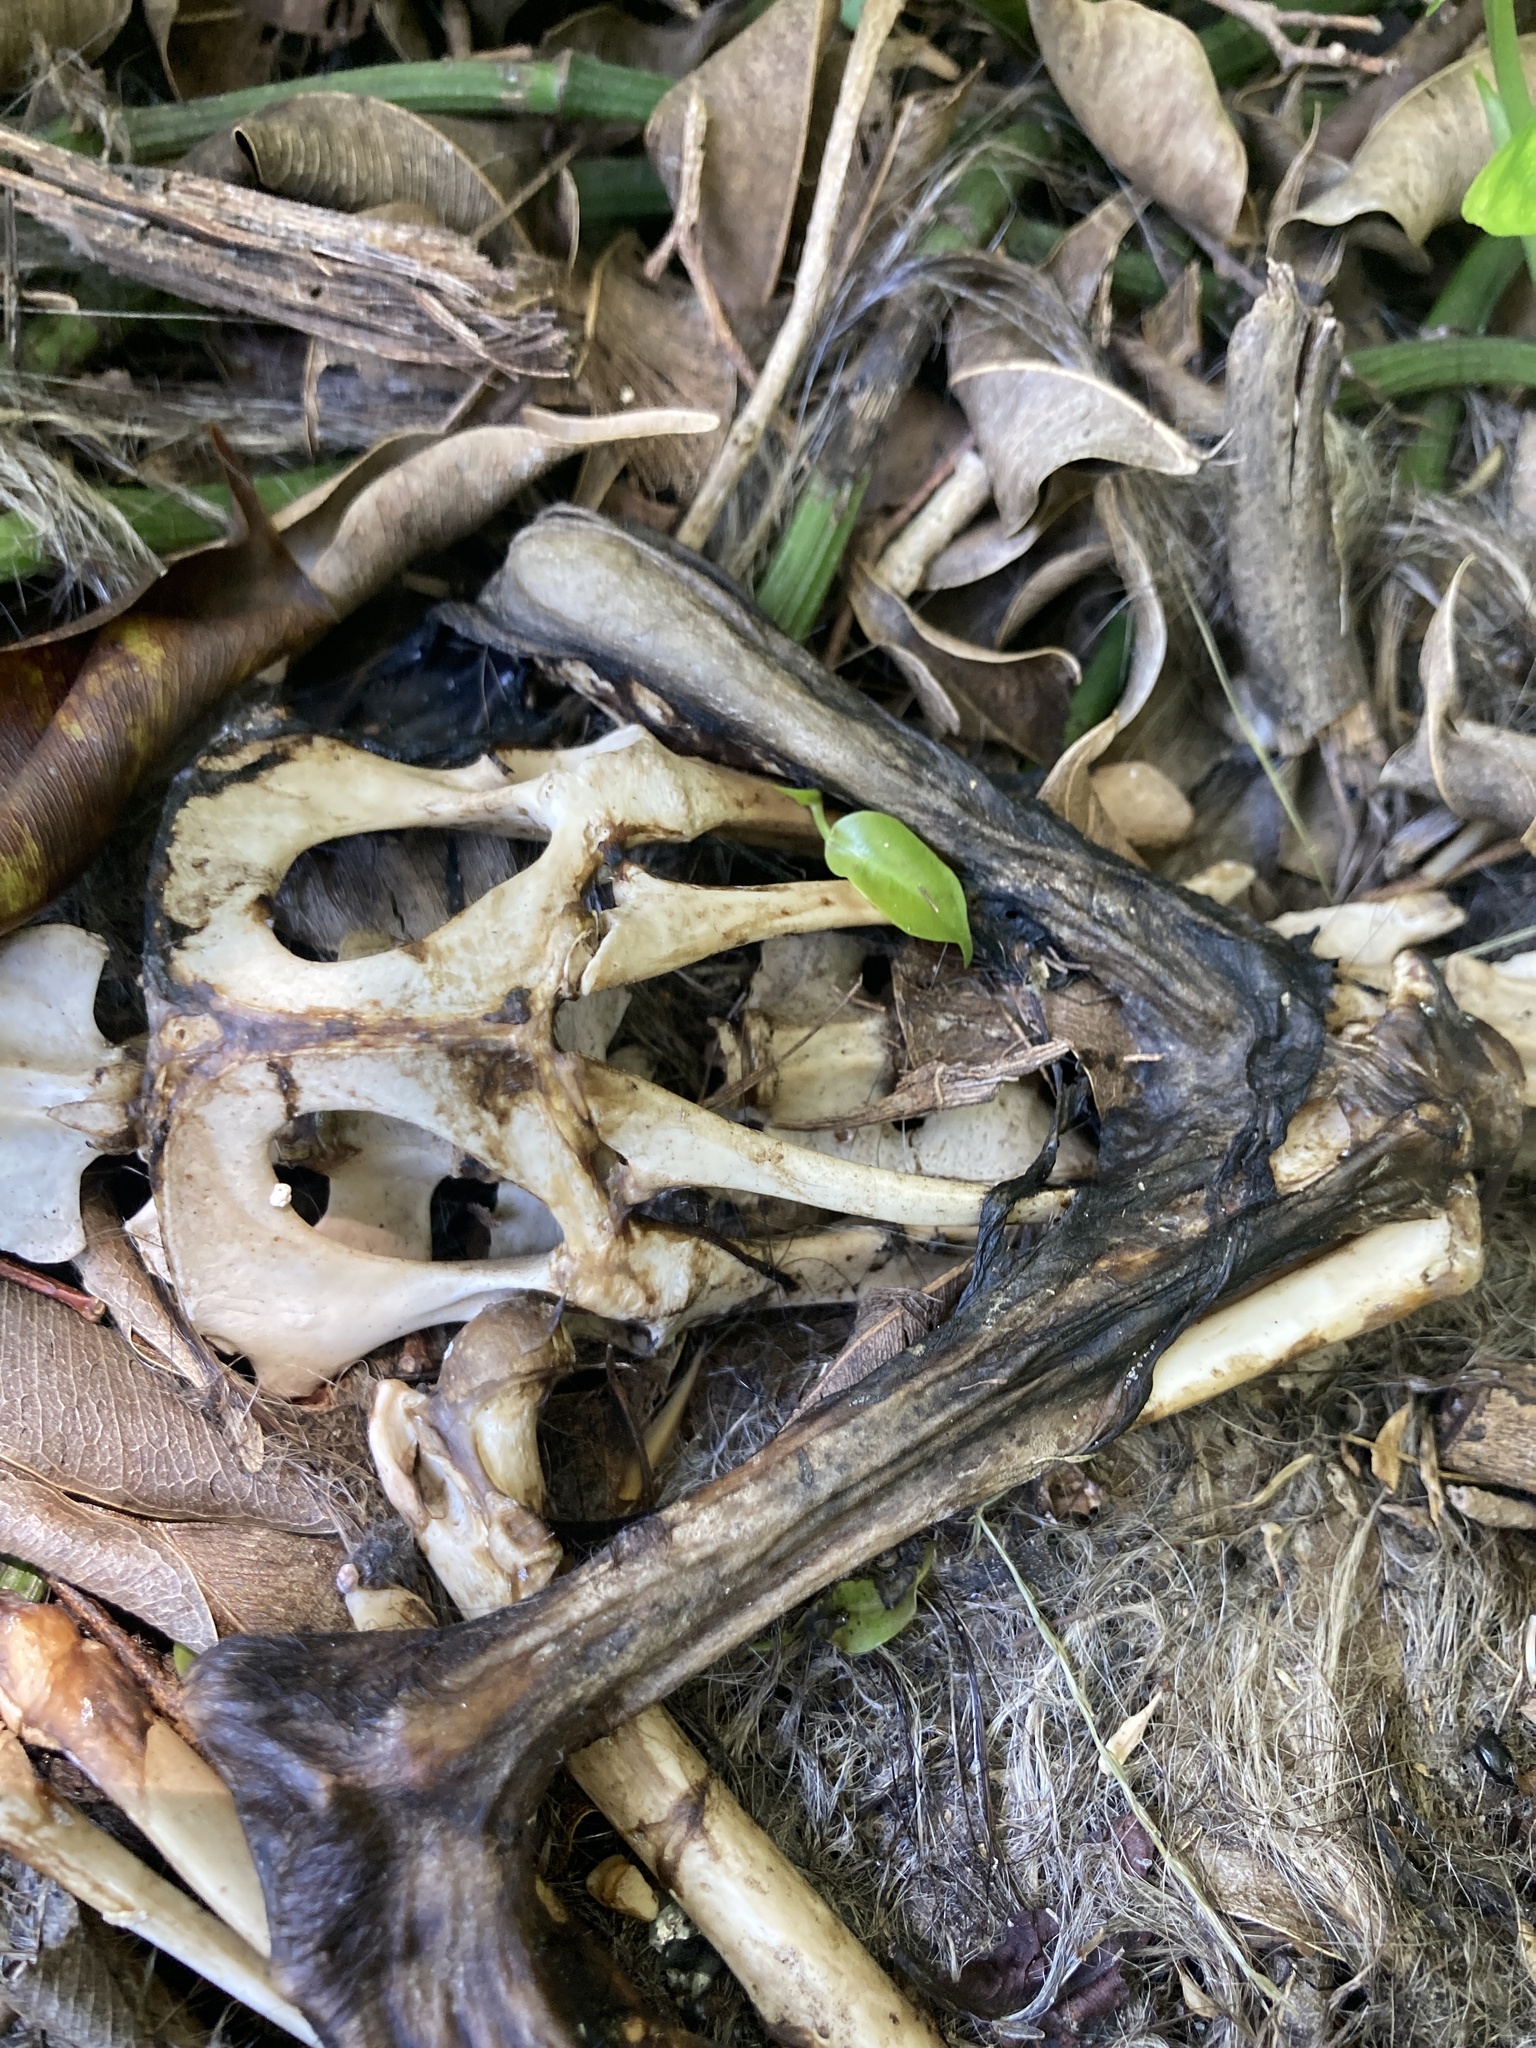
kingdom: Animalia
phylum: Chordata
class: Mammalia
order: Didelphimorphia
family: Didelphidae
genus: Didelphis
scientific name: Didelphis virginiana
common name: Virginia opossum
